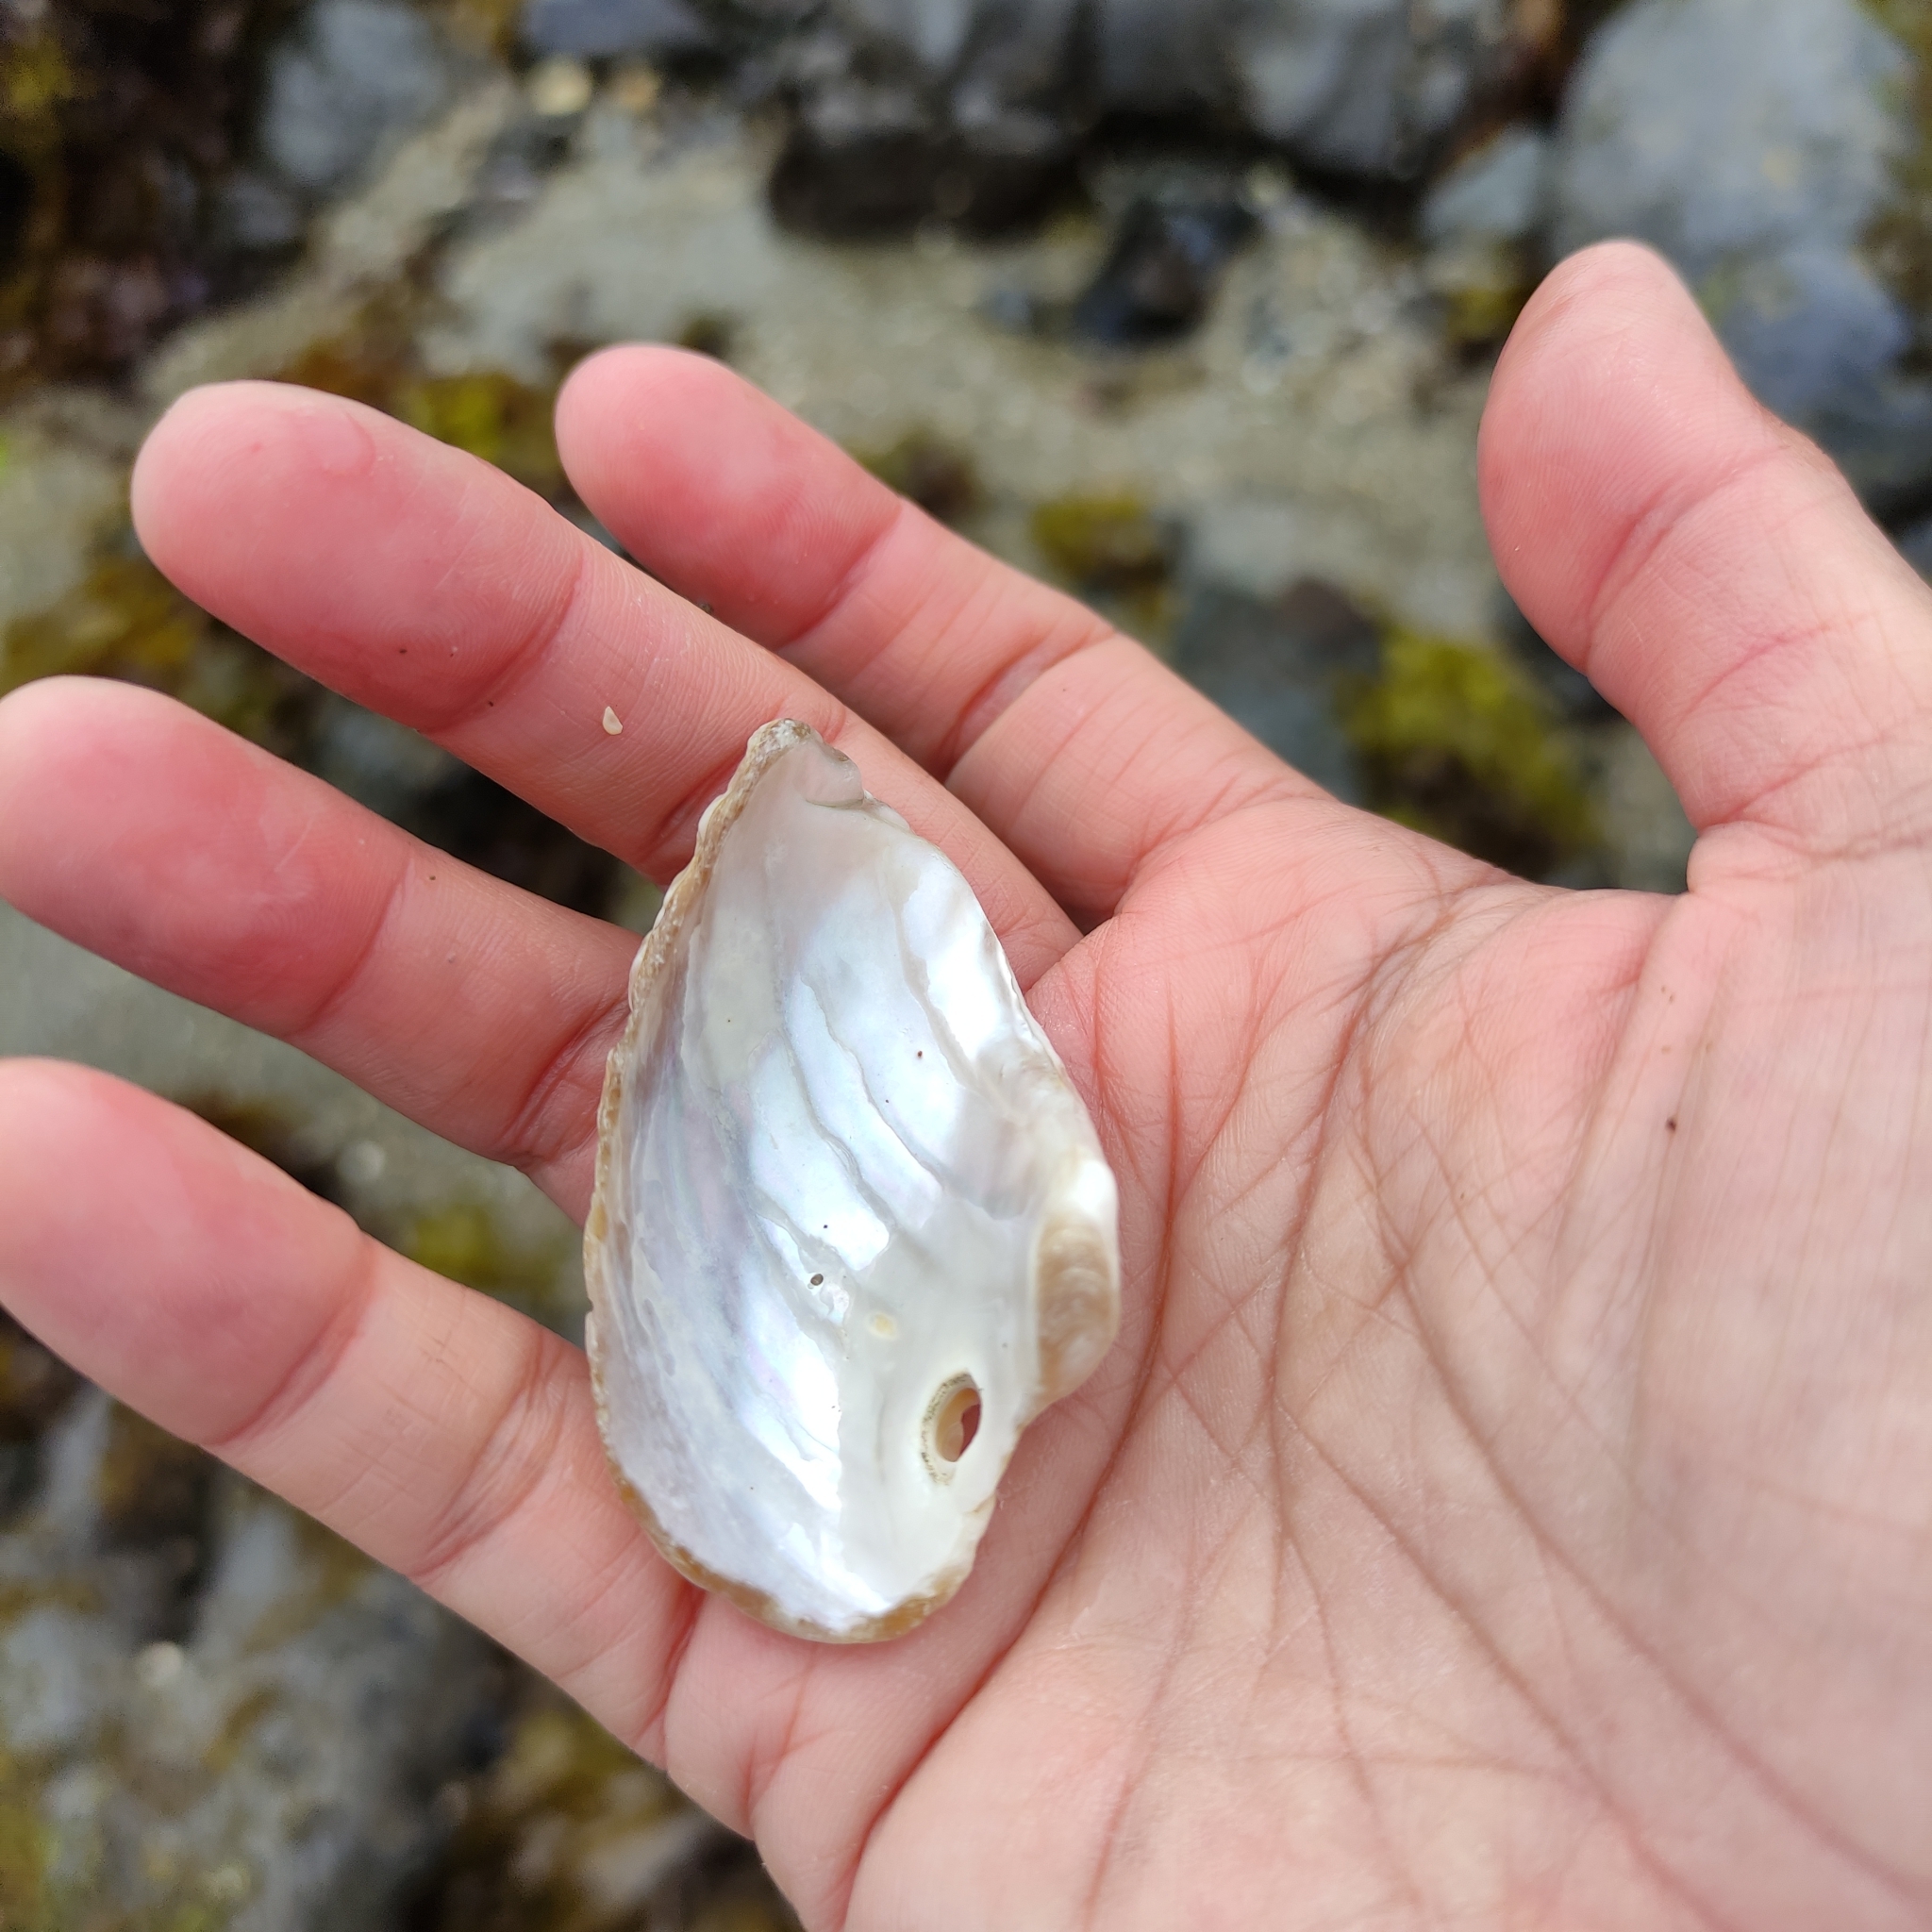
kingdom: Animalia
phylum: Mollusca
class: Gastropoda
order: Trochida
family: Turbinidae
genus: Cookia
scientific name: Cookia sulcata
